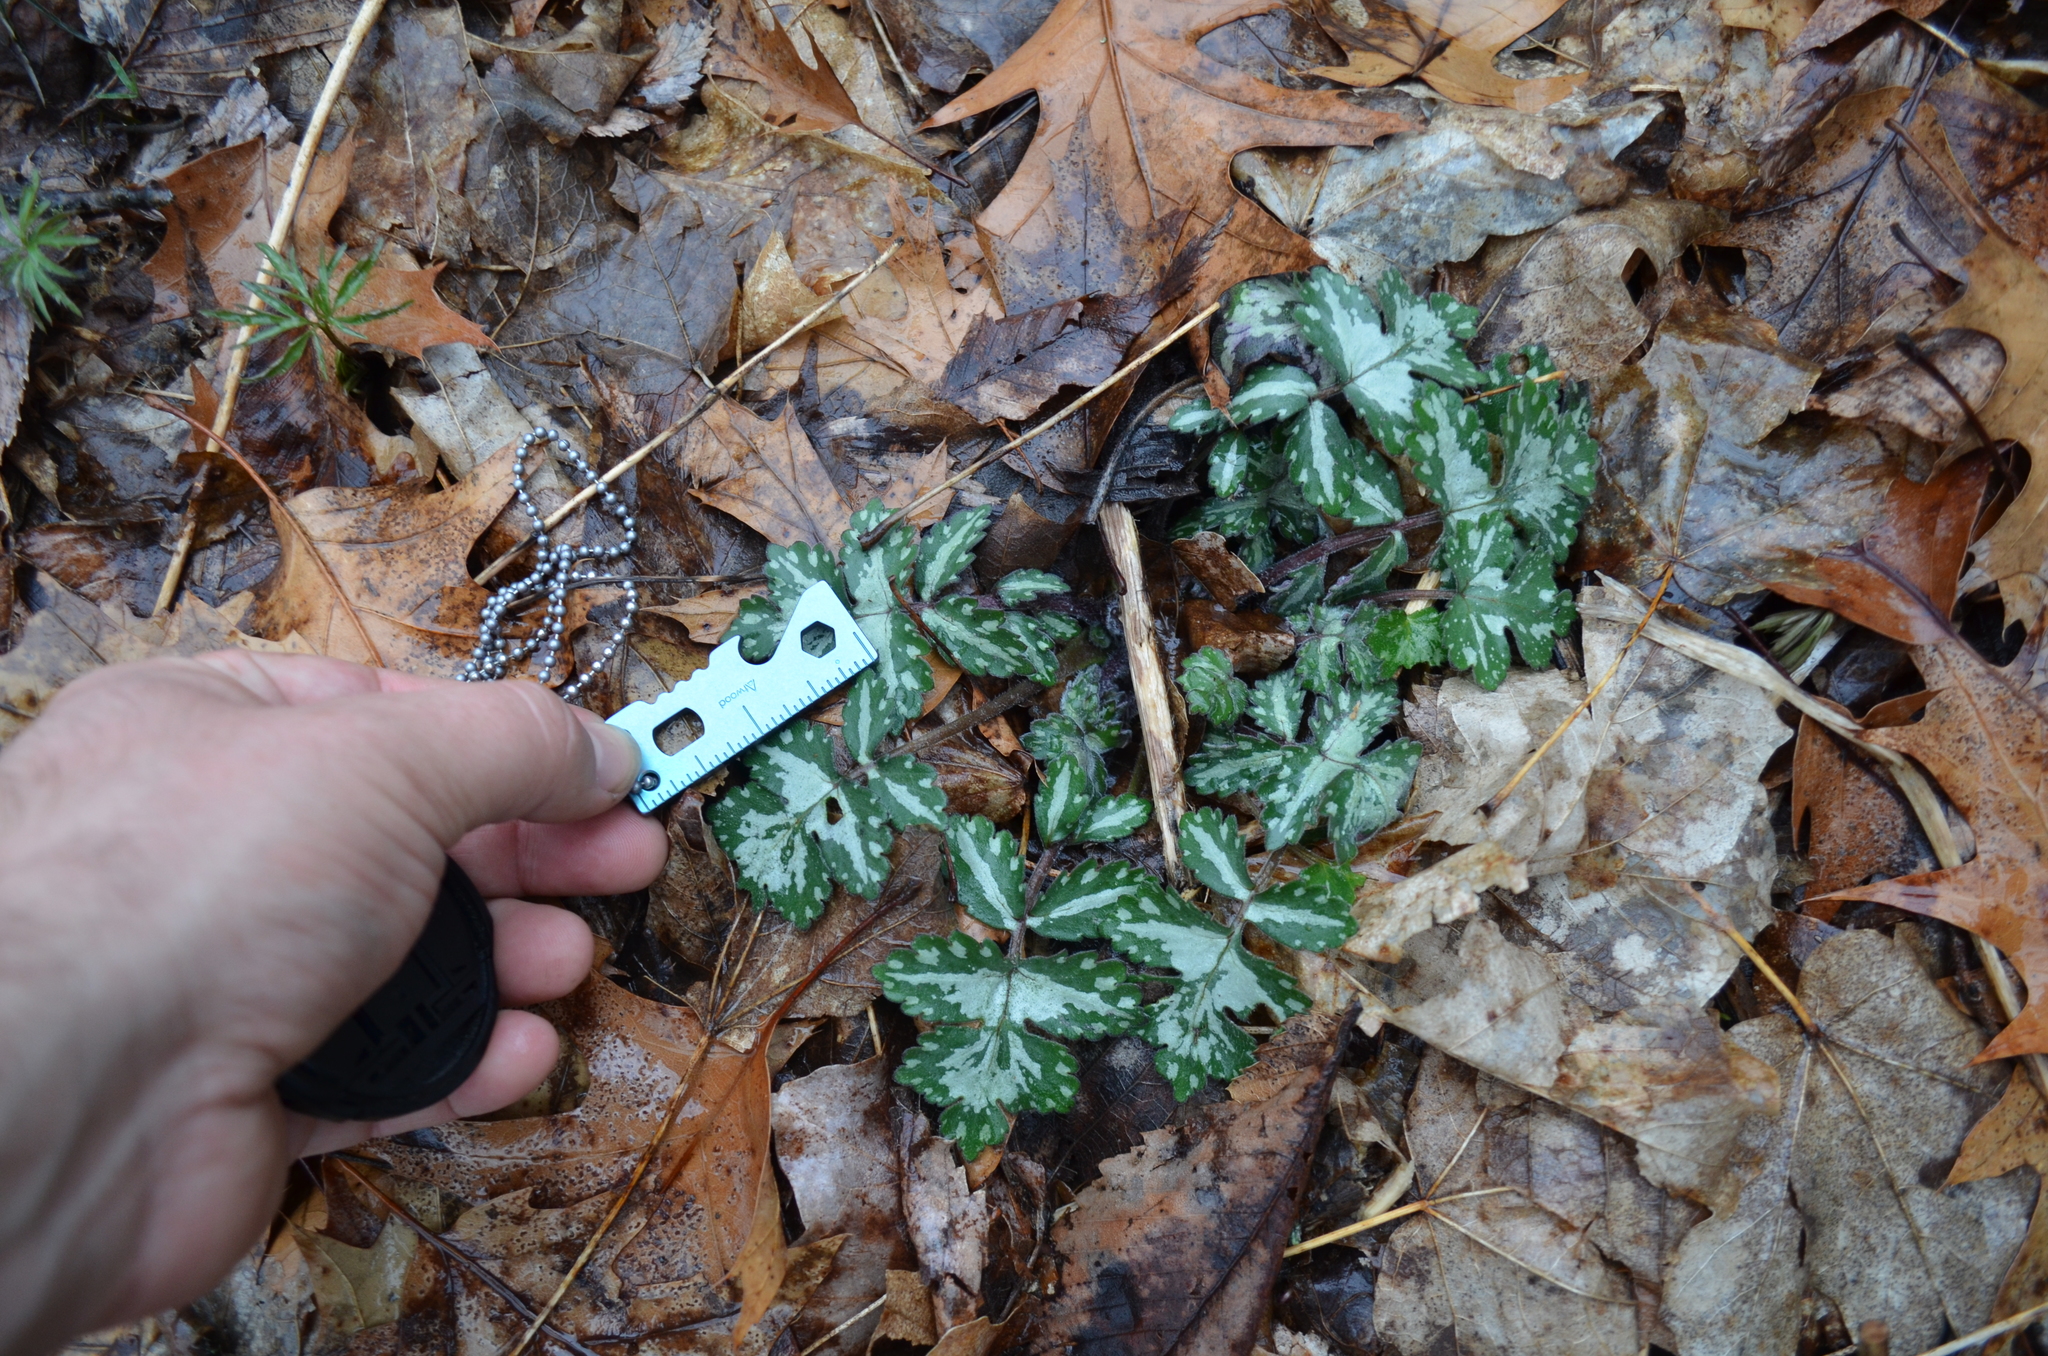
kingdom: Plantae
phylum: Tracheophyta
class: Magnoliopsida
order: Boraginales
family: Hydrophyllaceae
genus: Hydrophyllum
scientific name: Hydrophyllum appendiculatum
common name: Appendaged waterleaf
